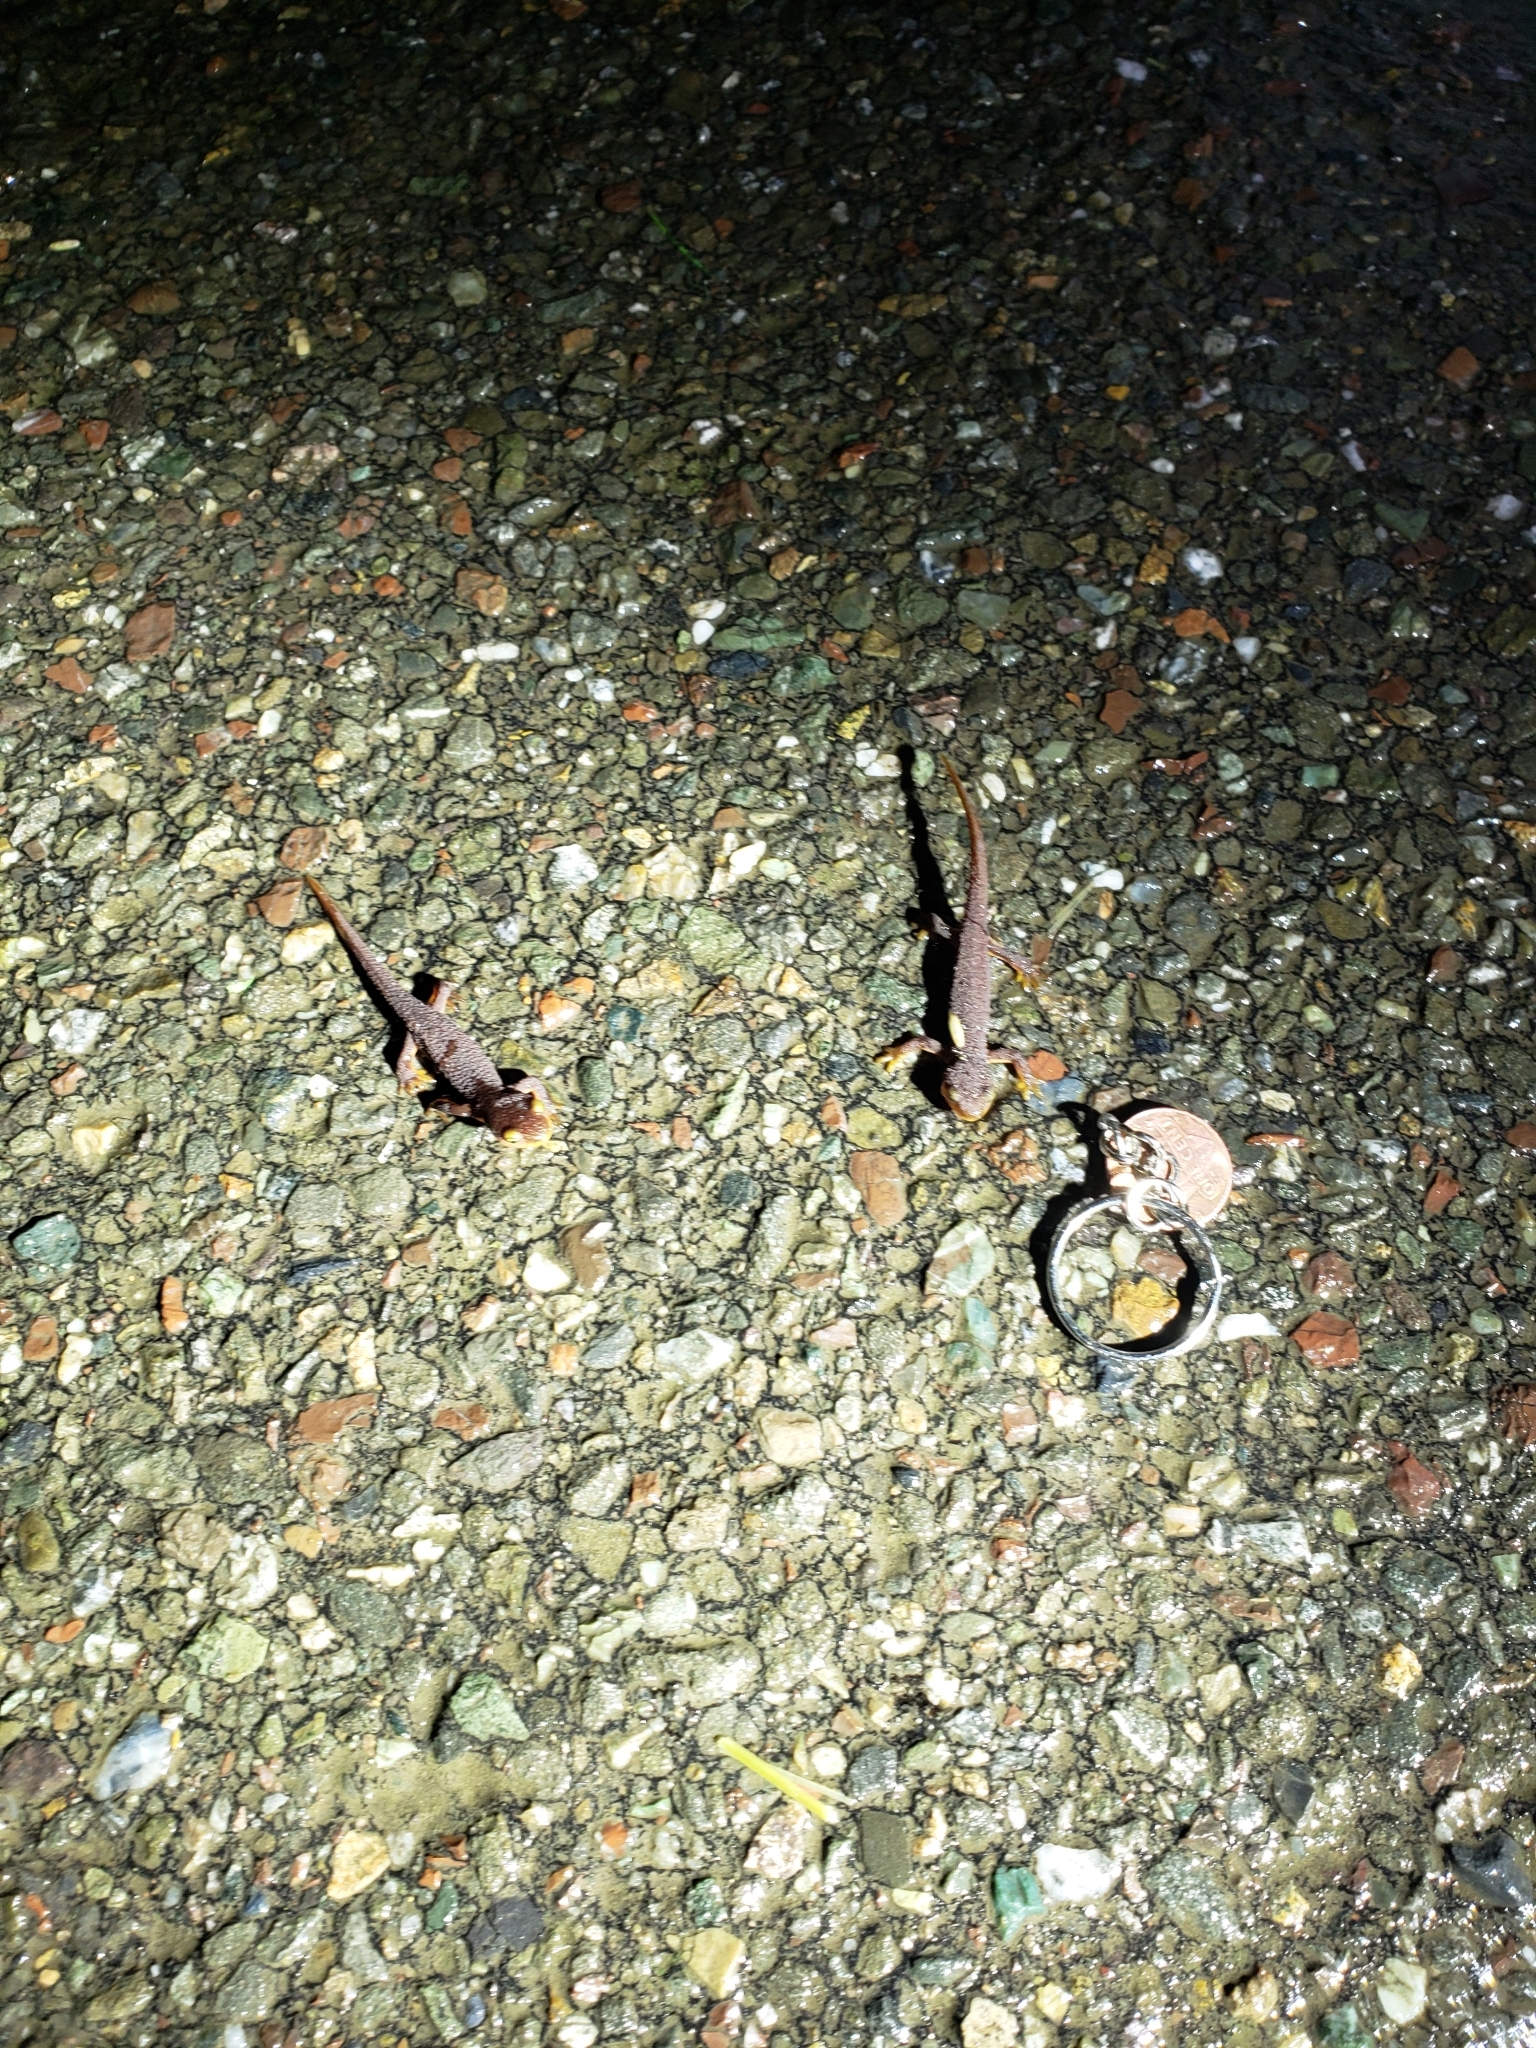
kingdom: Animalia
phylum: Chordata
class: Amphibia
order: Caudata
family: Salamandridae
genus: Taricha
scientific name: Taricha torosa
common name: California newt
